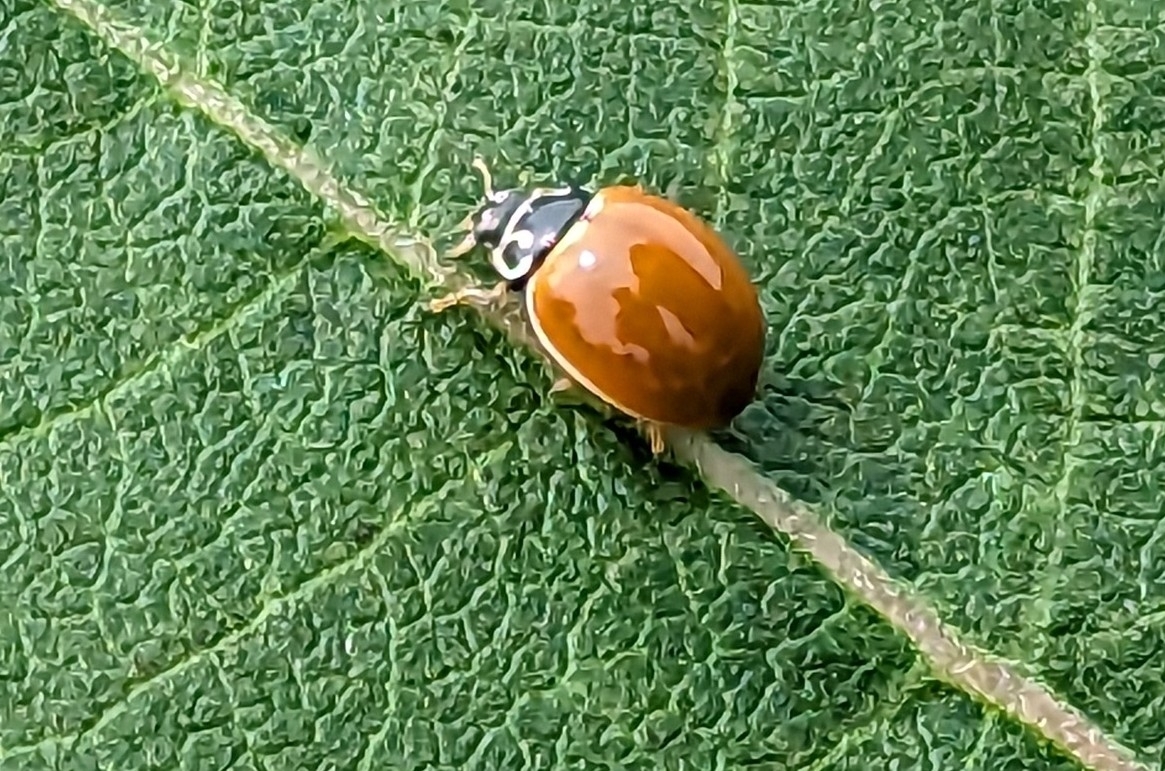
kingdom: Animalia
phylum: Arthropoda
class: Insecta
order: Coleoptera
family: Coccinellidae
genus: Cycloneda
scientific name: Cycloneda munda
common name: Polished lady beetle
